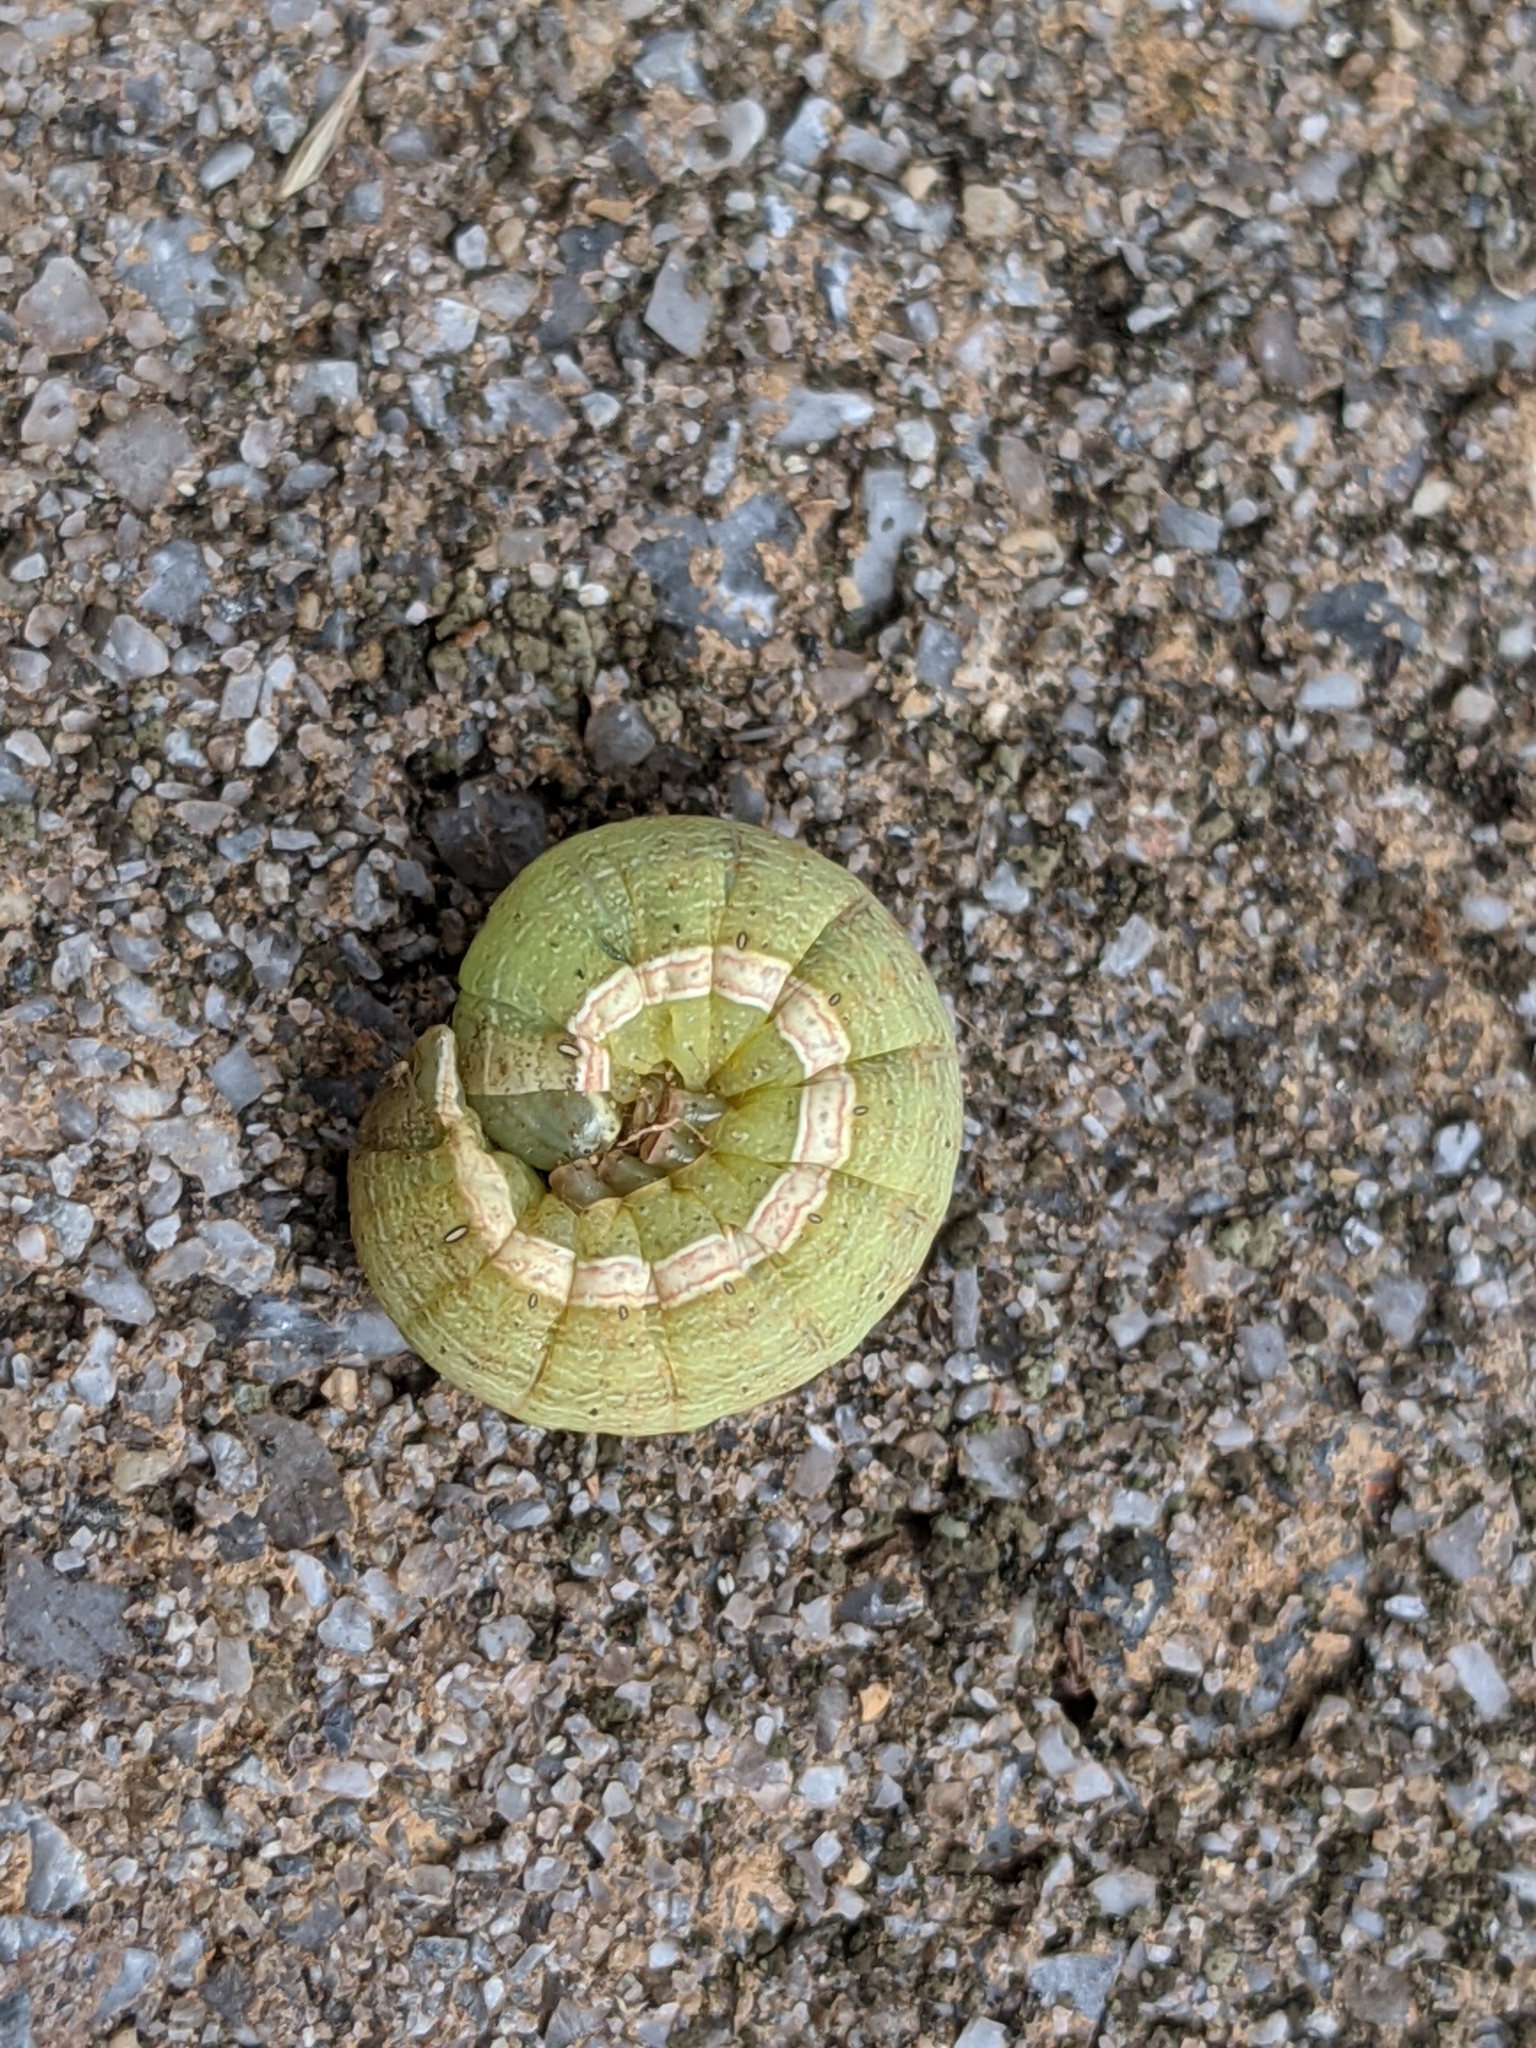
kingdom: Animalia
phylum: Arthropoda
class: Insecta
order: Lepidoptera
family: Noctuidae
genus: Anicla
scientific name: Anicla infecta
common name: Green cutworm
